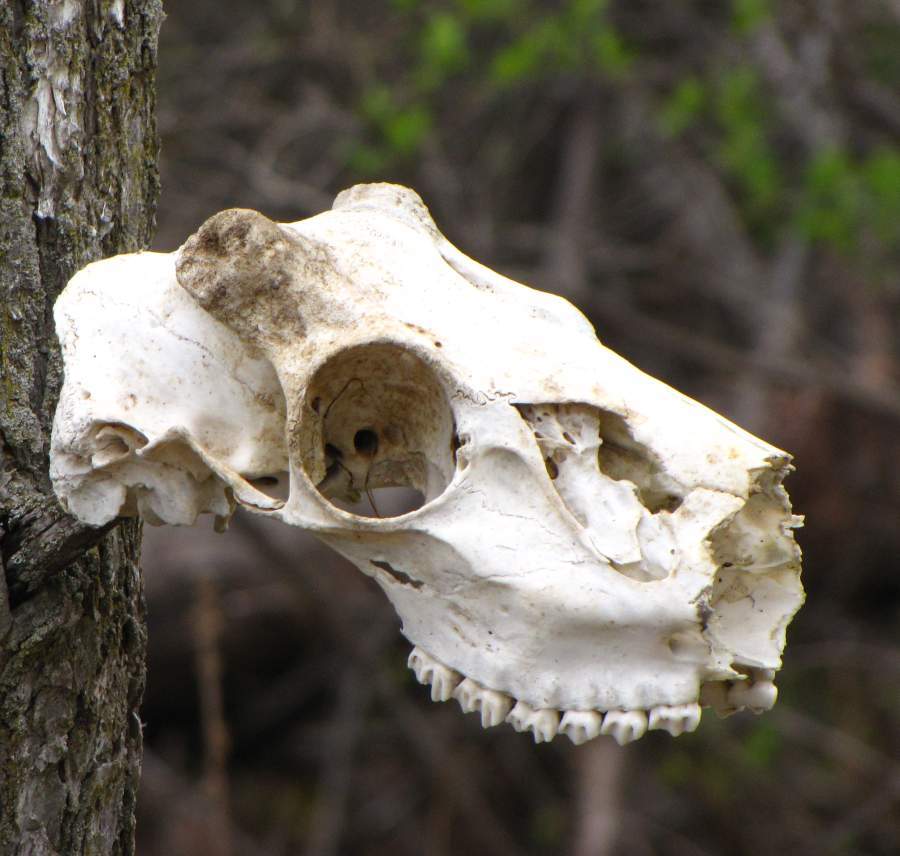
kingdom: Animalia
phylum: Chordata
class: Mammalia
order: Artiodactyla
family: Cervidae
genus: Odocoileus
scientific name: Odocoileus virginianus
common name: White-tailed deer
